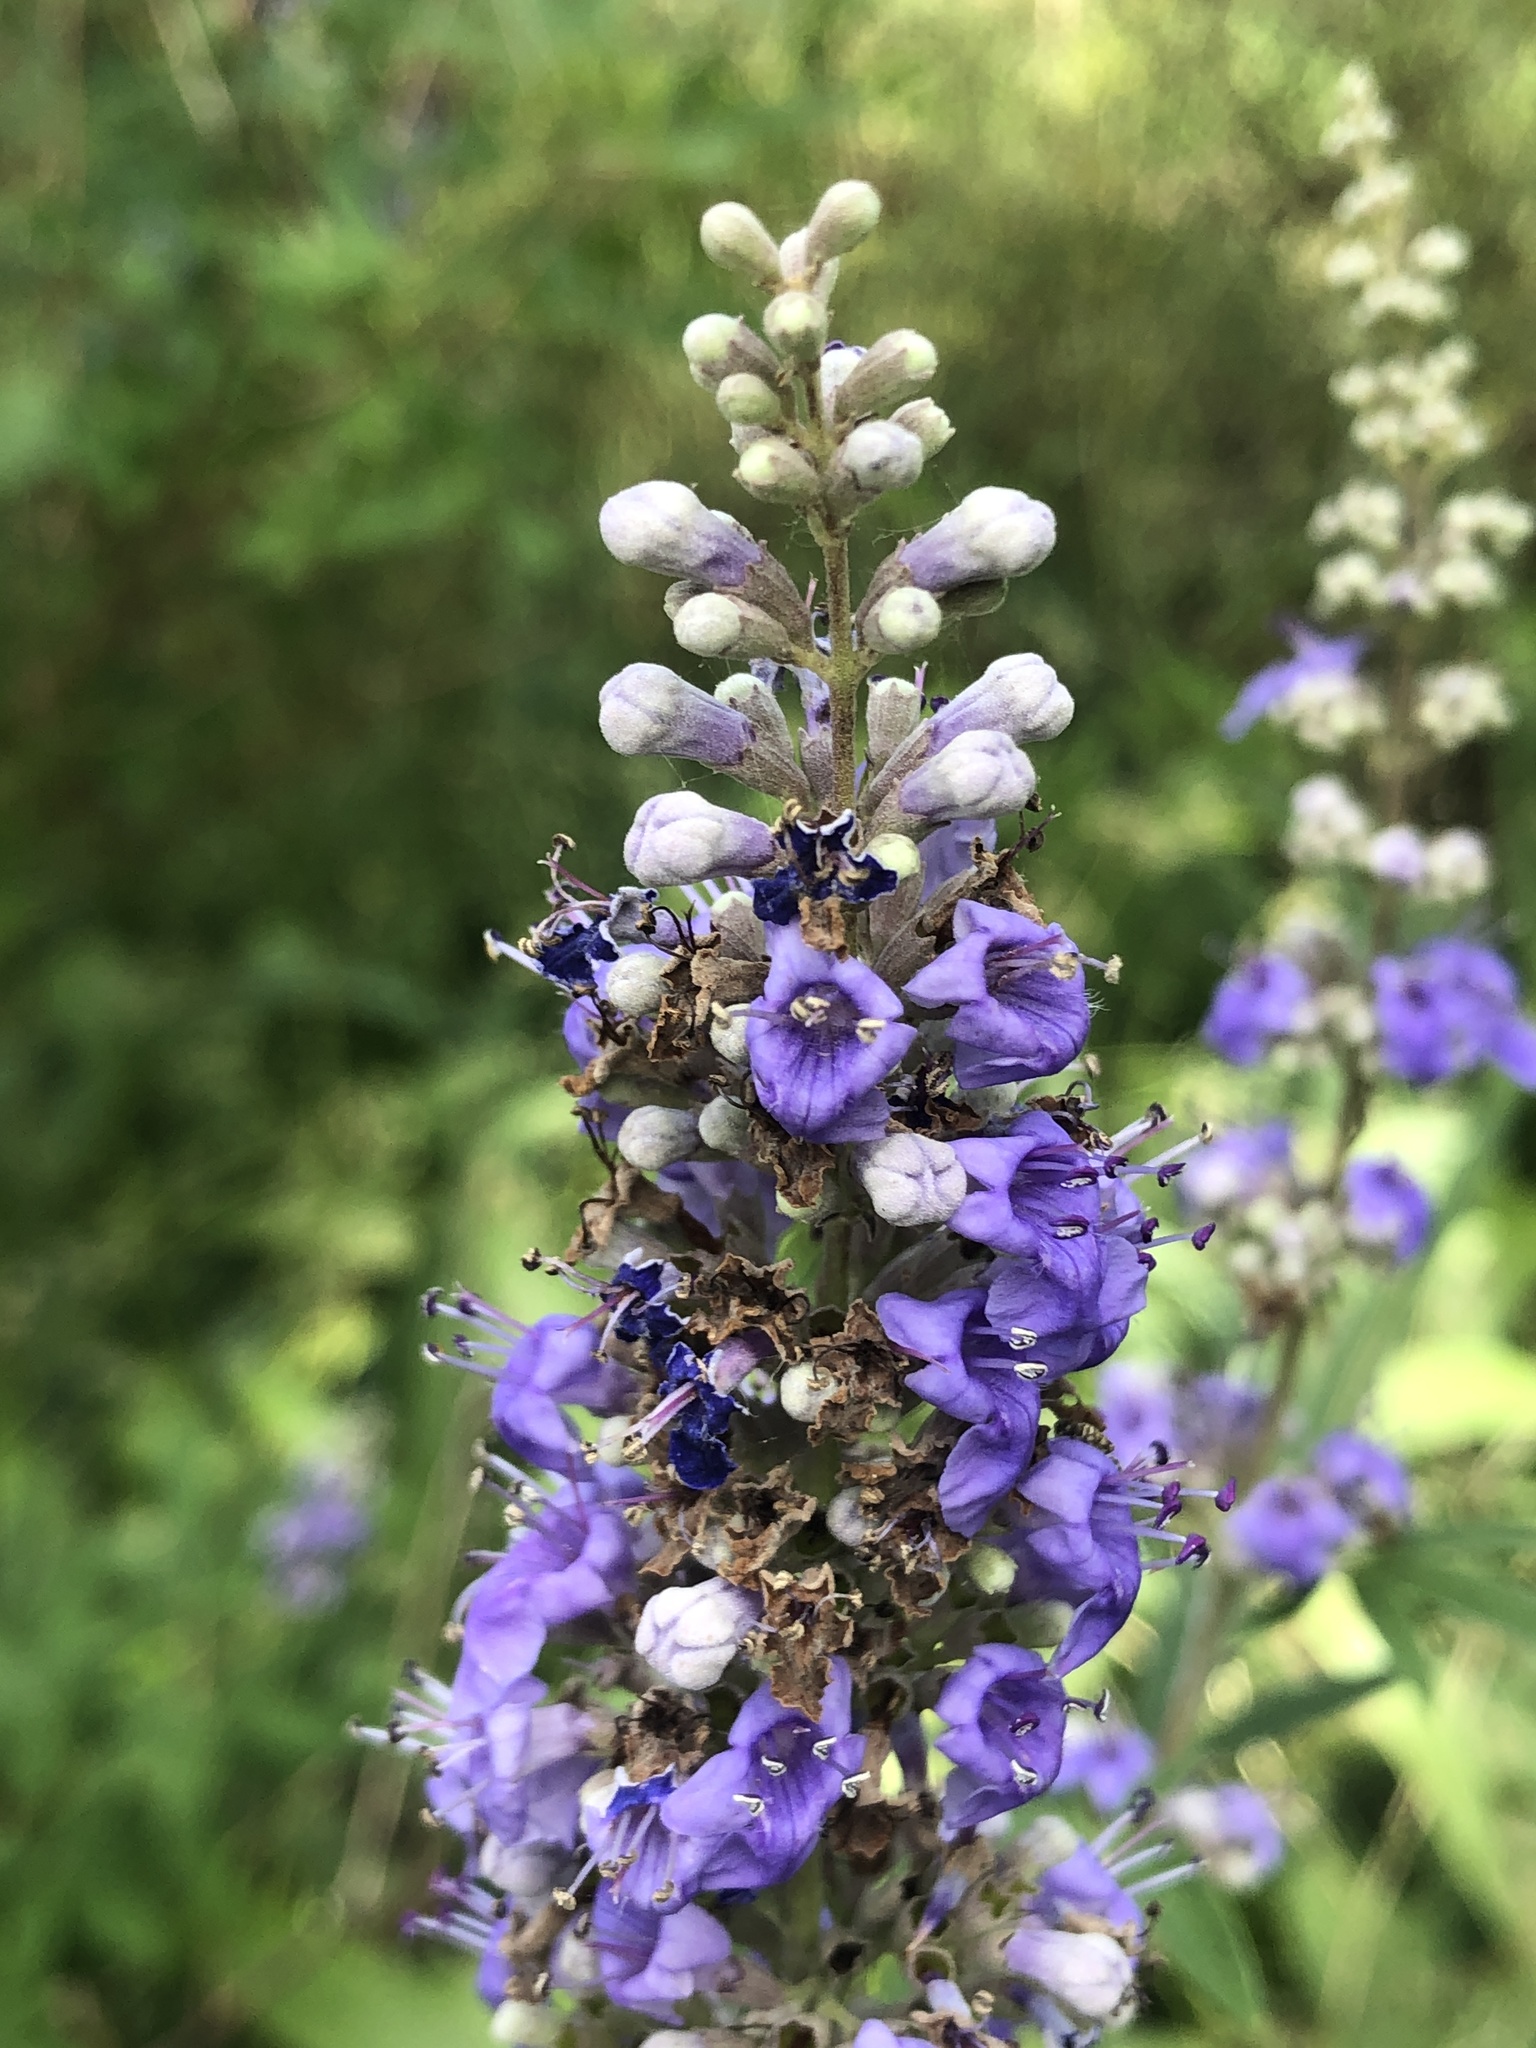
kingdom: Plantae
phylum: Tracheophyta
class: Magnoliopsida
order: Lamiales
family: Lamiaceae
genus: Vitex
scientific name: Vitex agnus-castus
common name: Chasteberry
